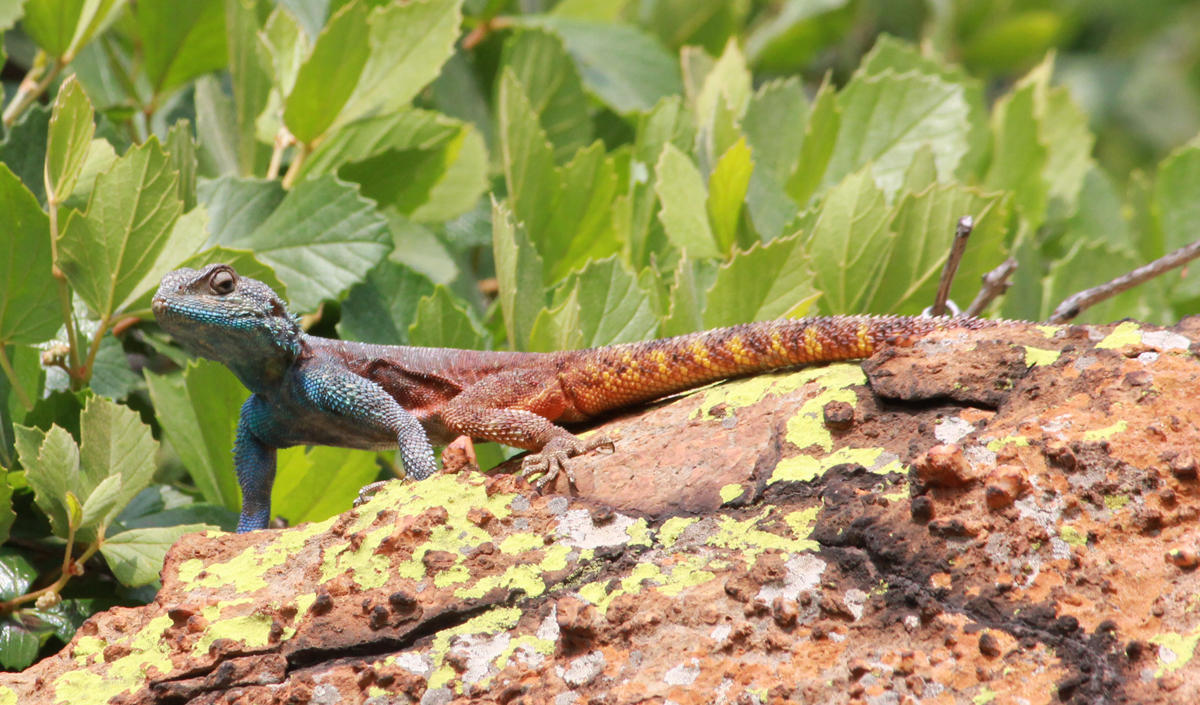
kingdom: Animalia
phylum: Chordata
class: Squamata
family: Agamidae
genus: Agama
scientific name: Agama atra
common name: Southern african rock agama
